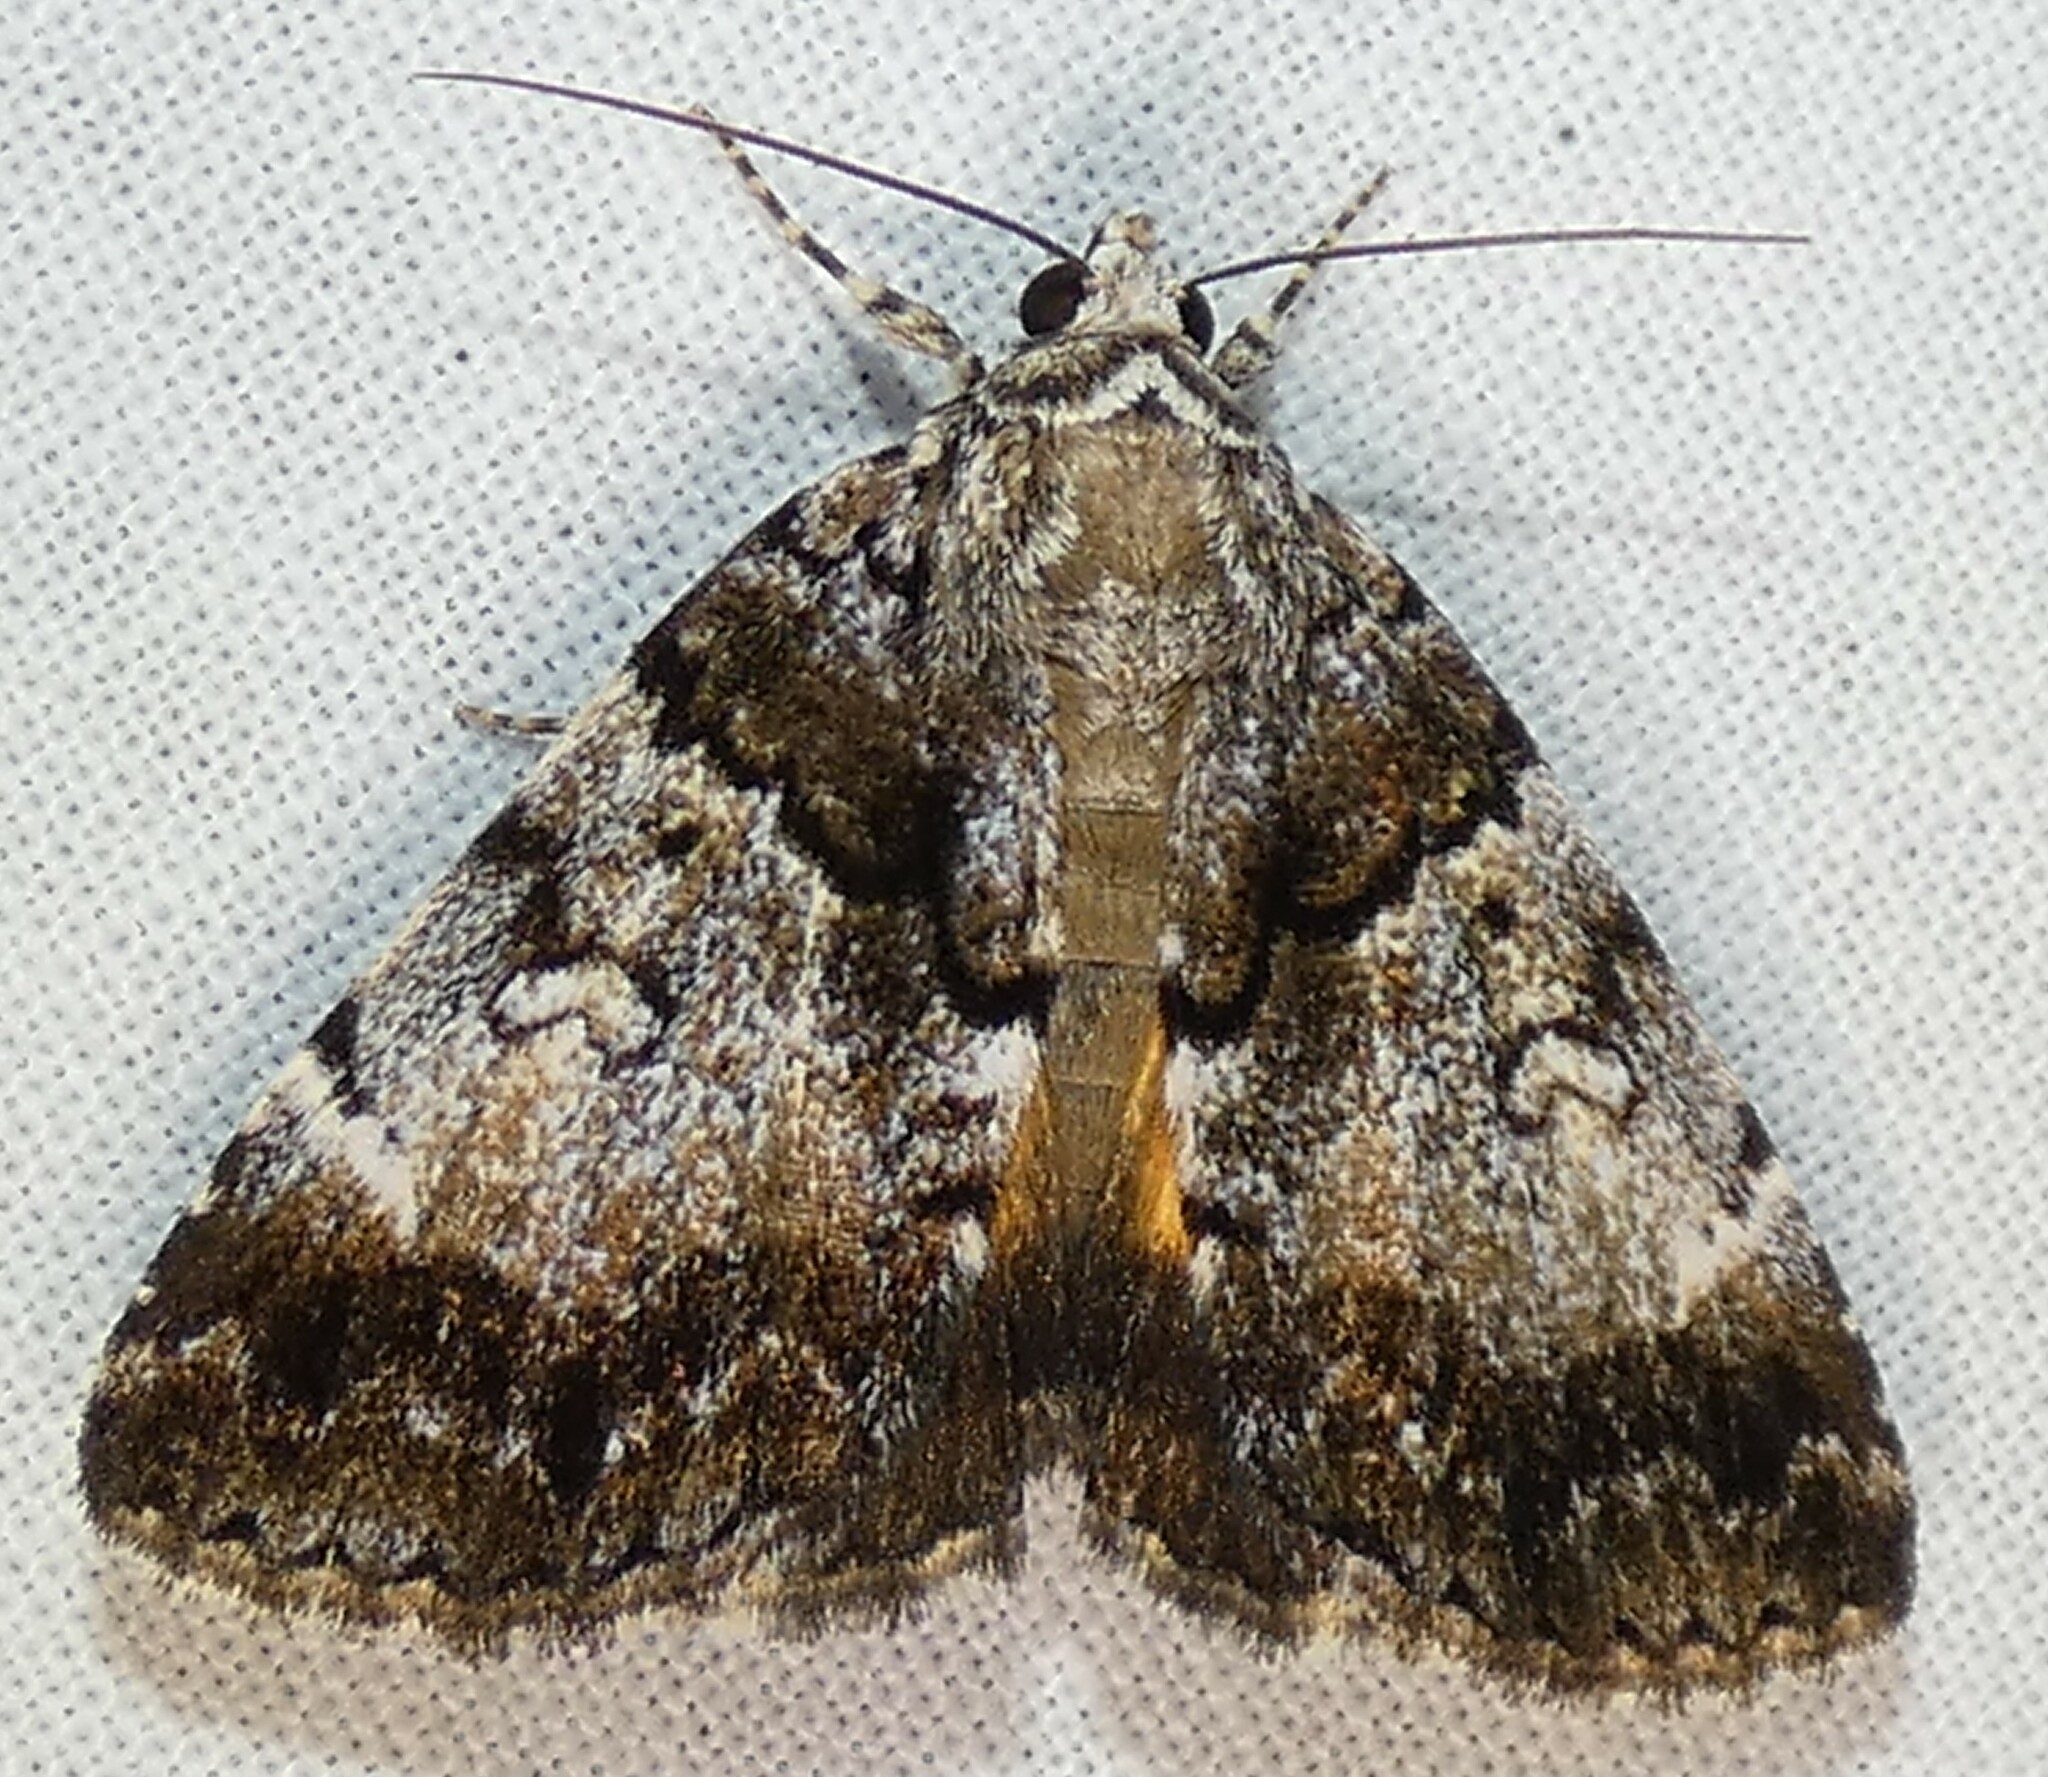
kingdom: Animalia
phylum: Arthropoda
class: Insecta
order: Lepidoptera
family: Erebidae
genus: Allotria
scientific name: Allotria elonympha
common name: False underwing
